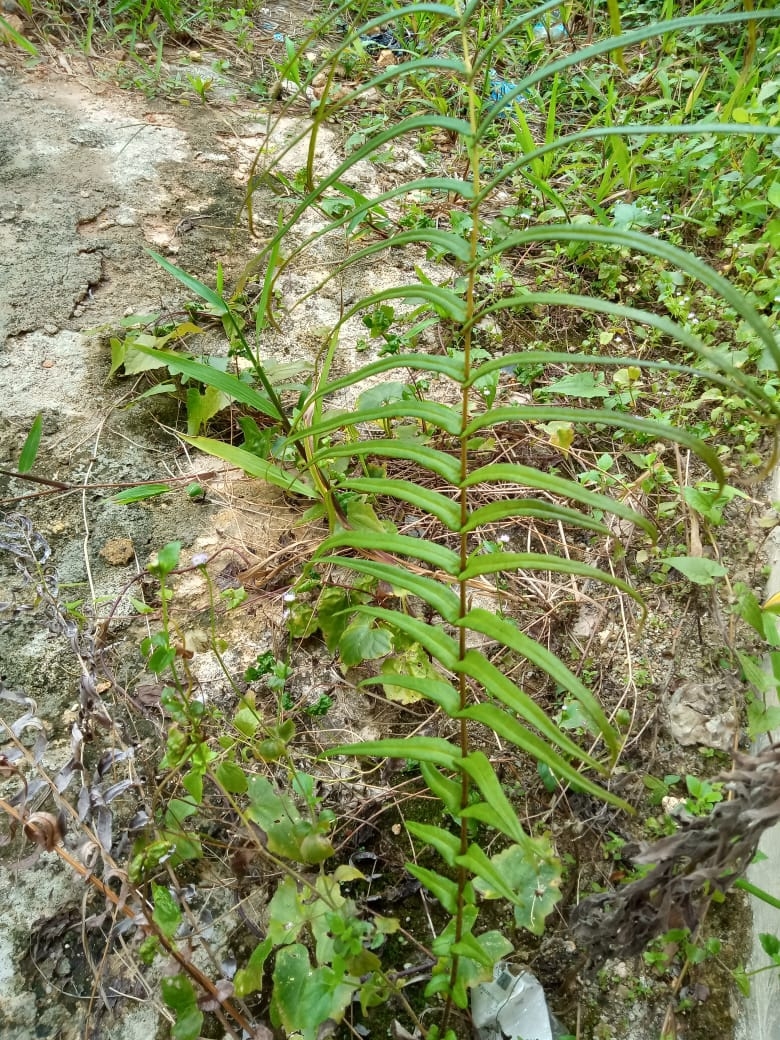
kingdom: Plantae
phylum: Tracheophyta
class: Polypodiopsida
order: Polypodiales
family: Pteridaceae
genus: Pteris
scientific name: Pteris vittata
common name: Ladder brake
